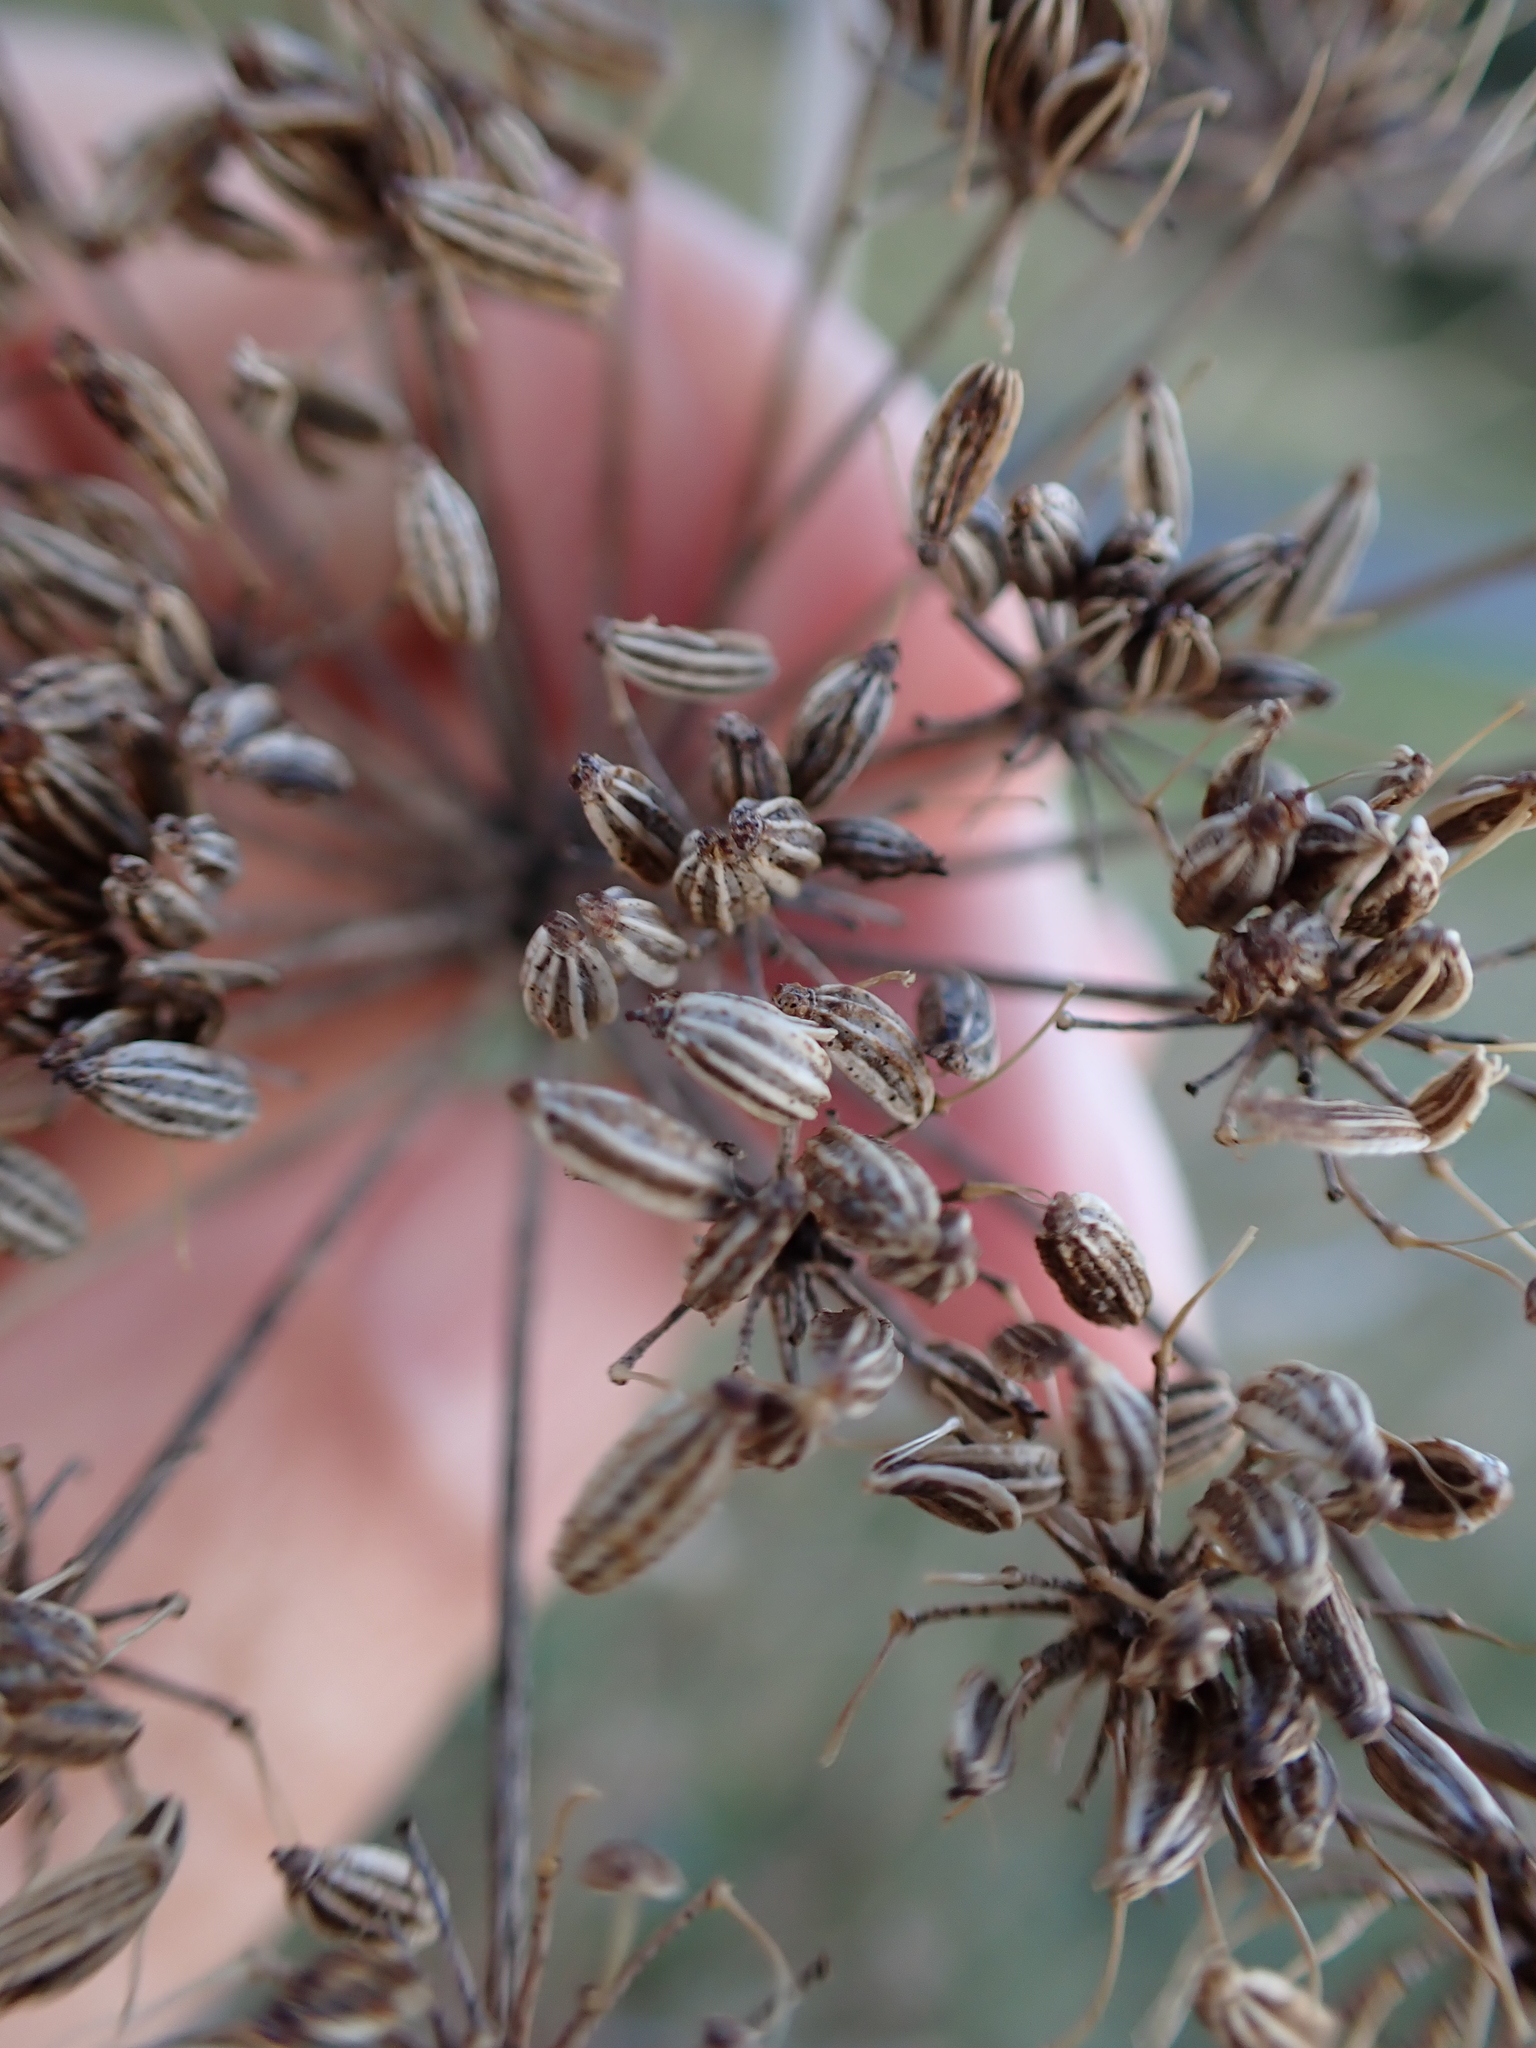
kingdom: Plantae
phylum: Tracheophyta
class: Magnoliopsida
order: Apiales
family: Apiaceae
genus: Conium
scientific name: Conium maculatum
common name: Hemlock
